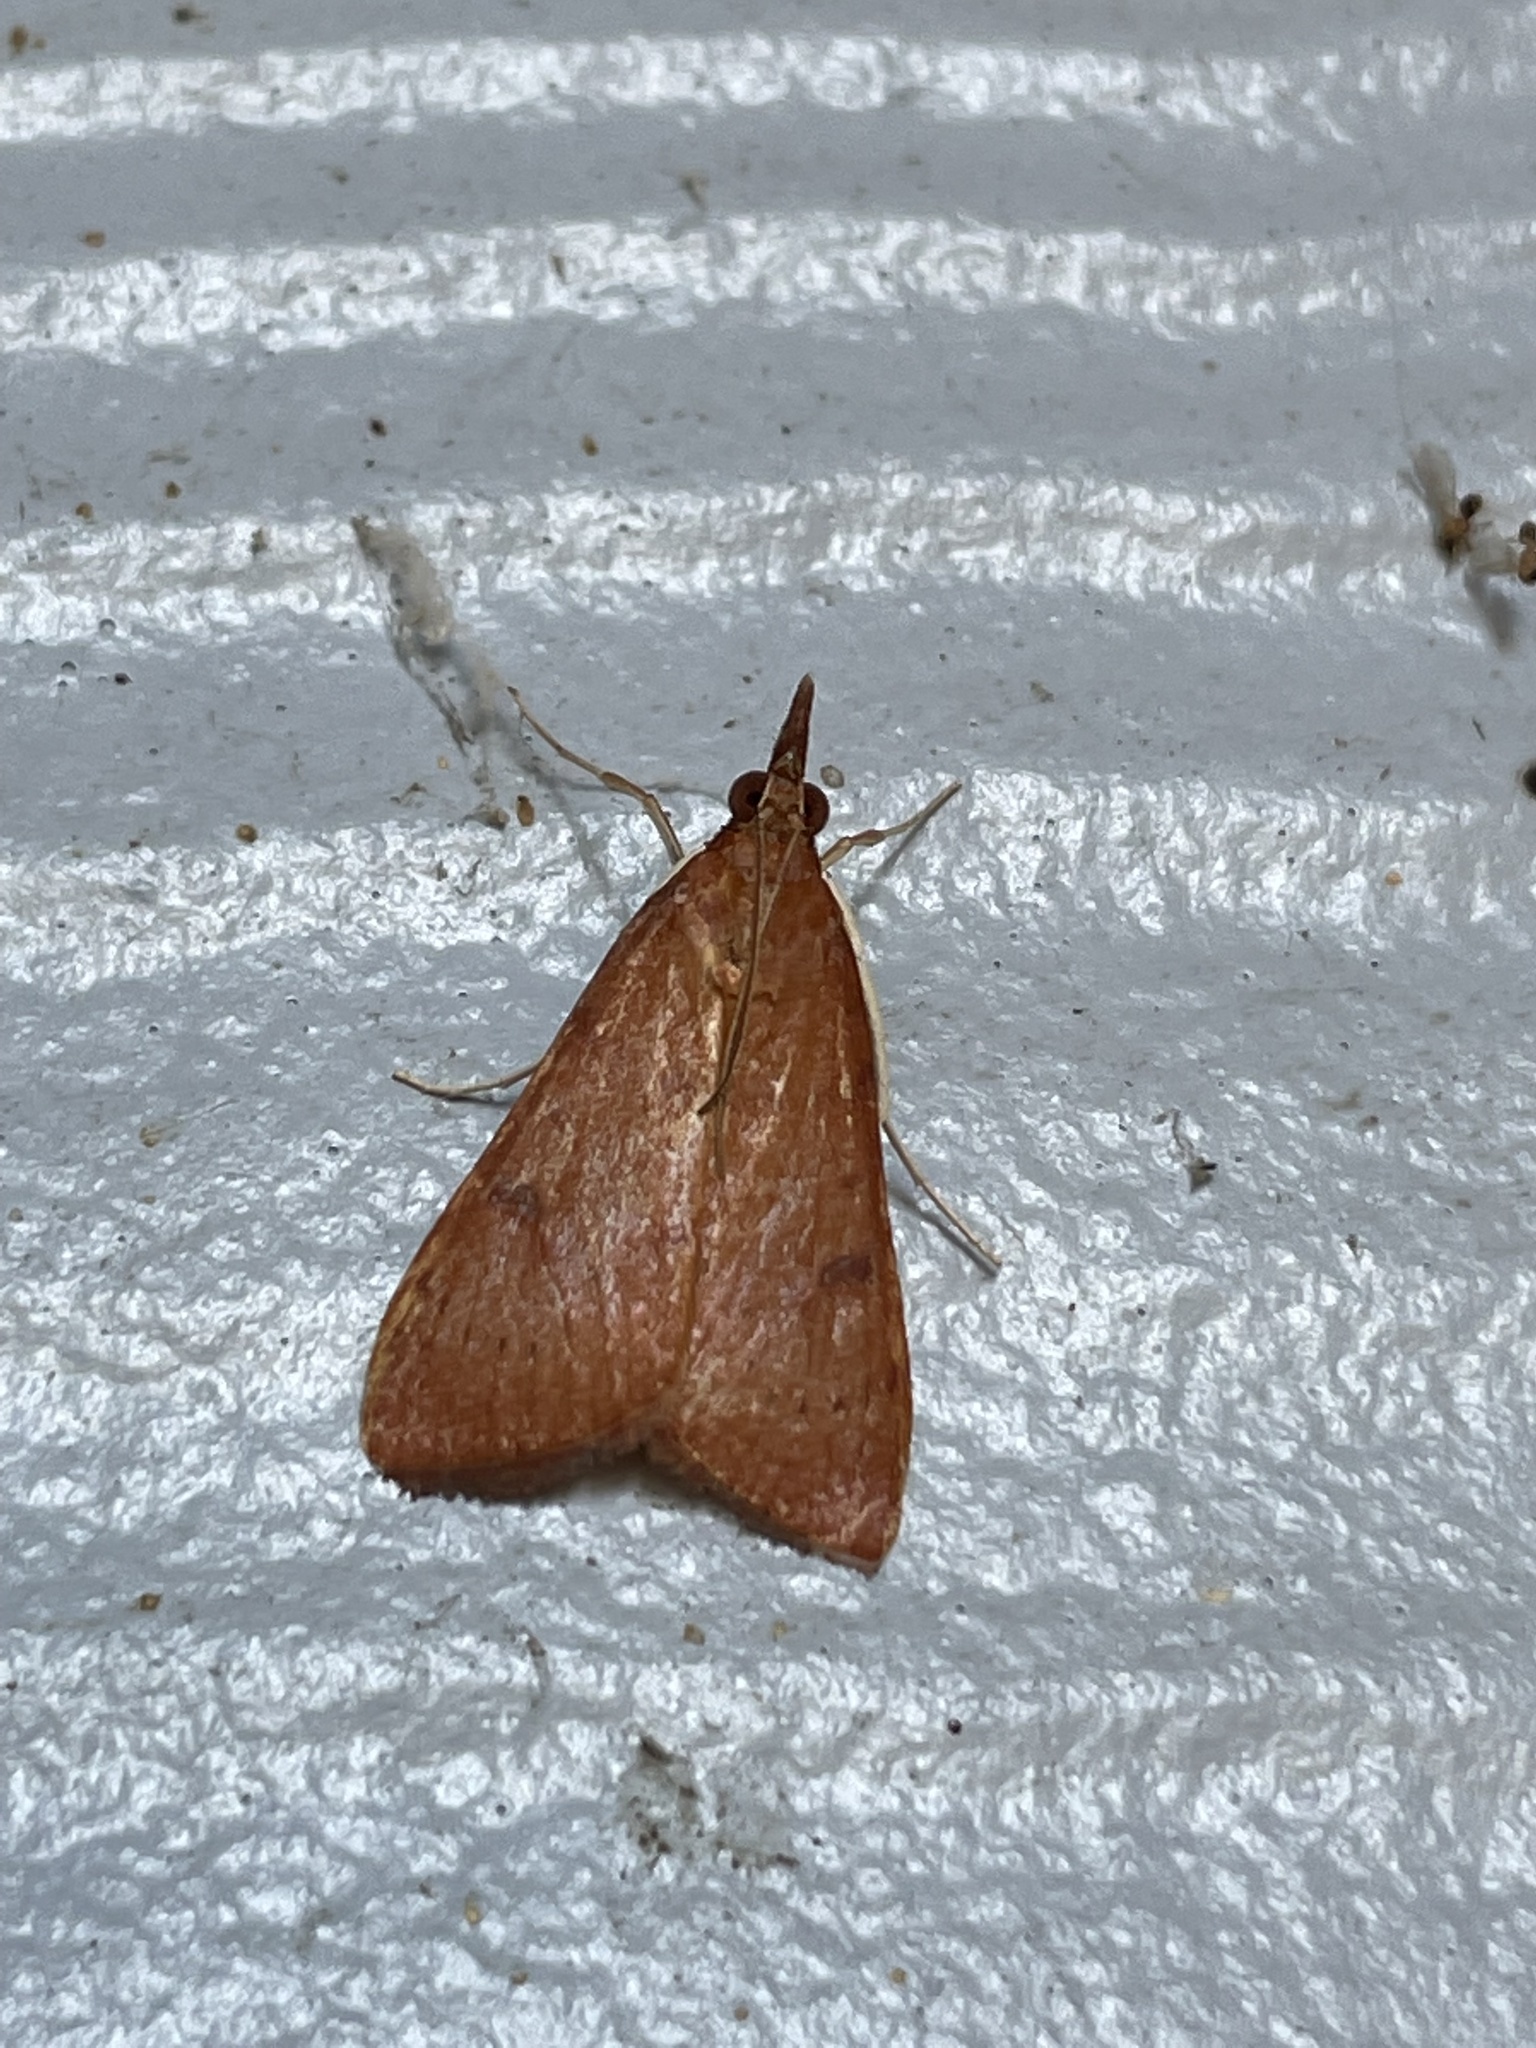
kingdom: Animalia
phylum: Arthropoda
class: Insecta
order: Lepidoptera
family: Crambidae
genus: Uresiphita
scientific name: Uresiphita reversalis
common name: Genista broom moth
